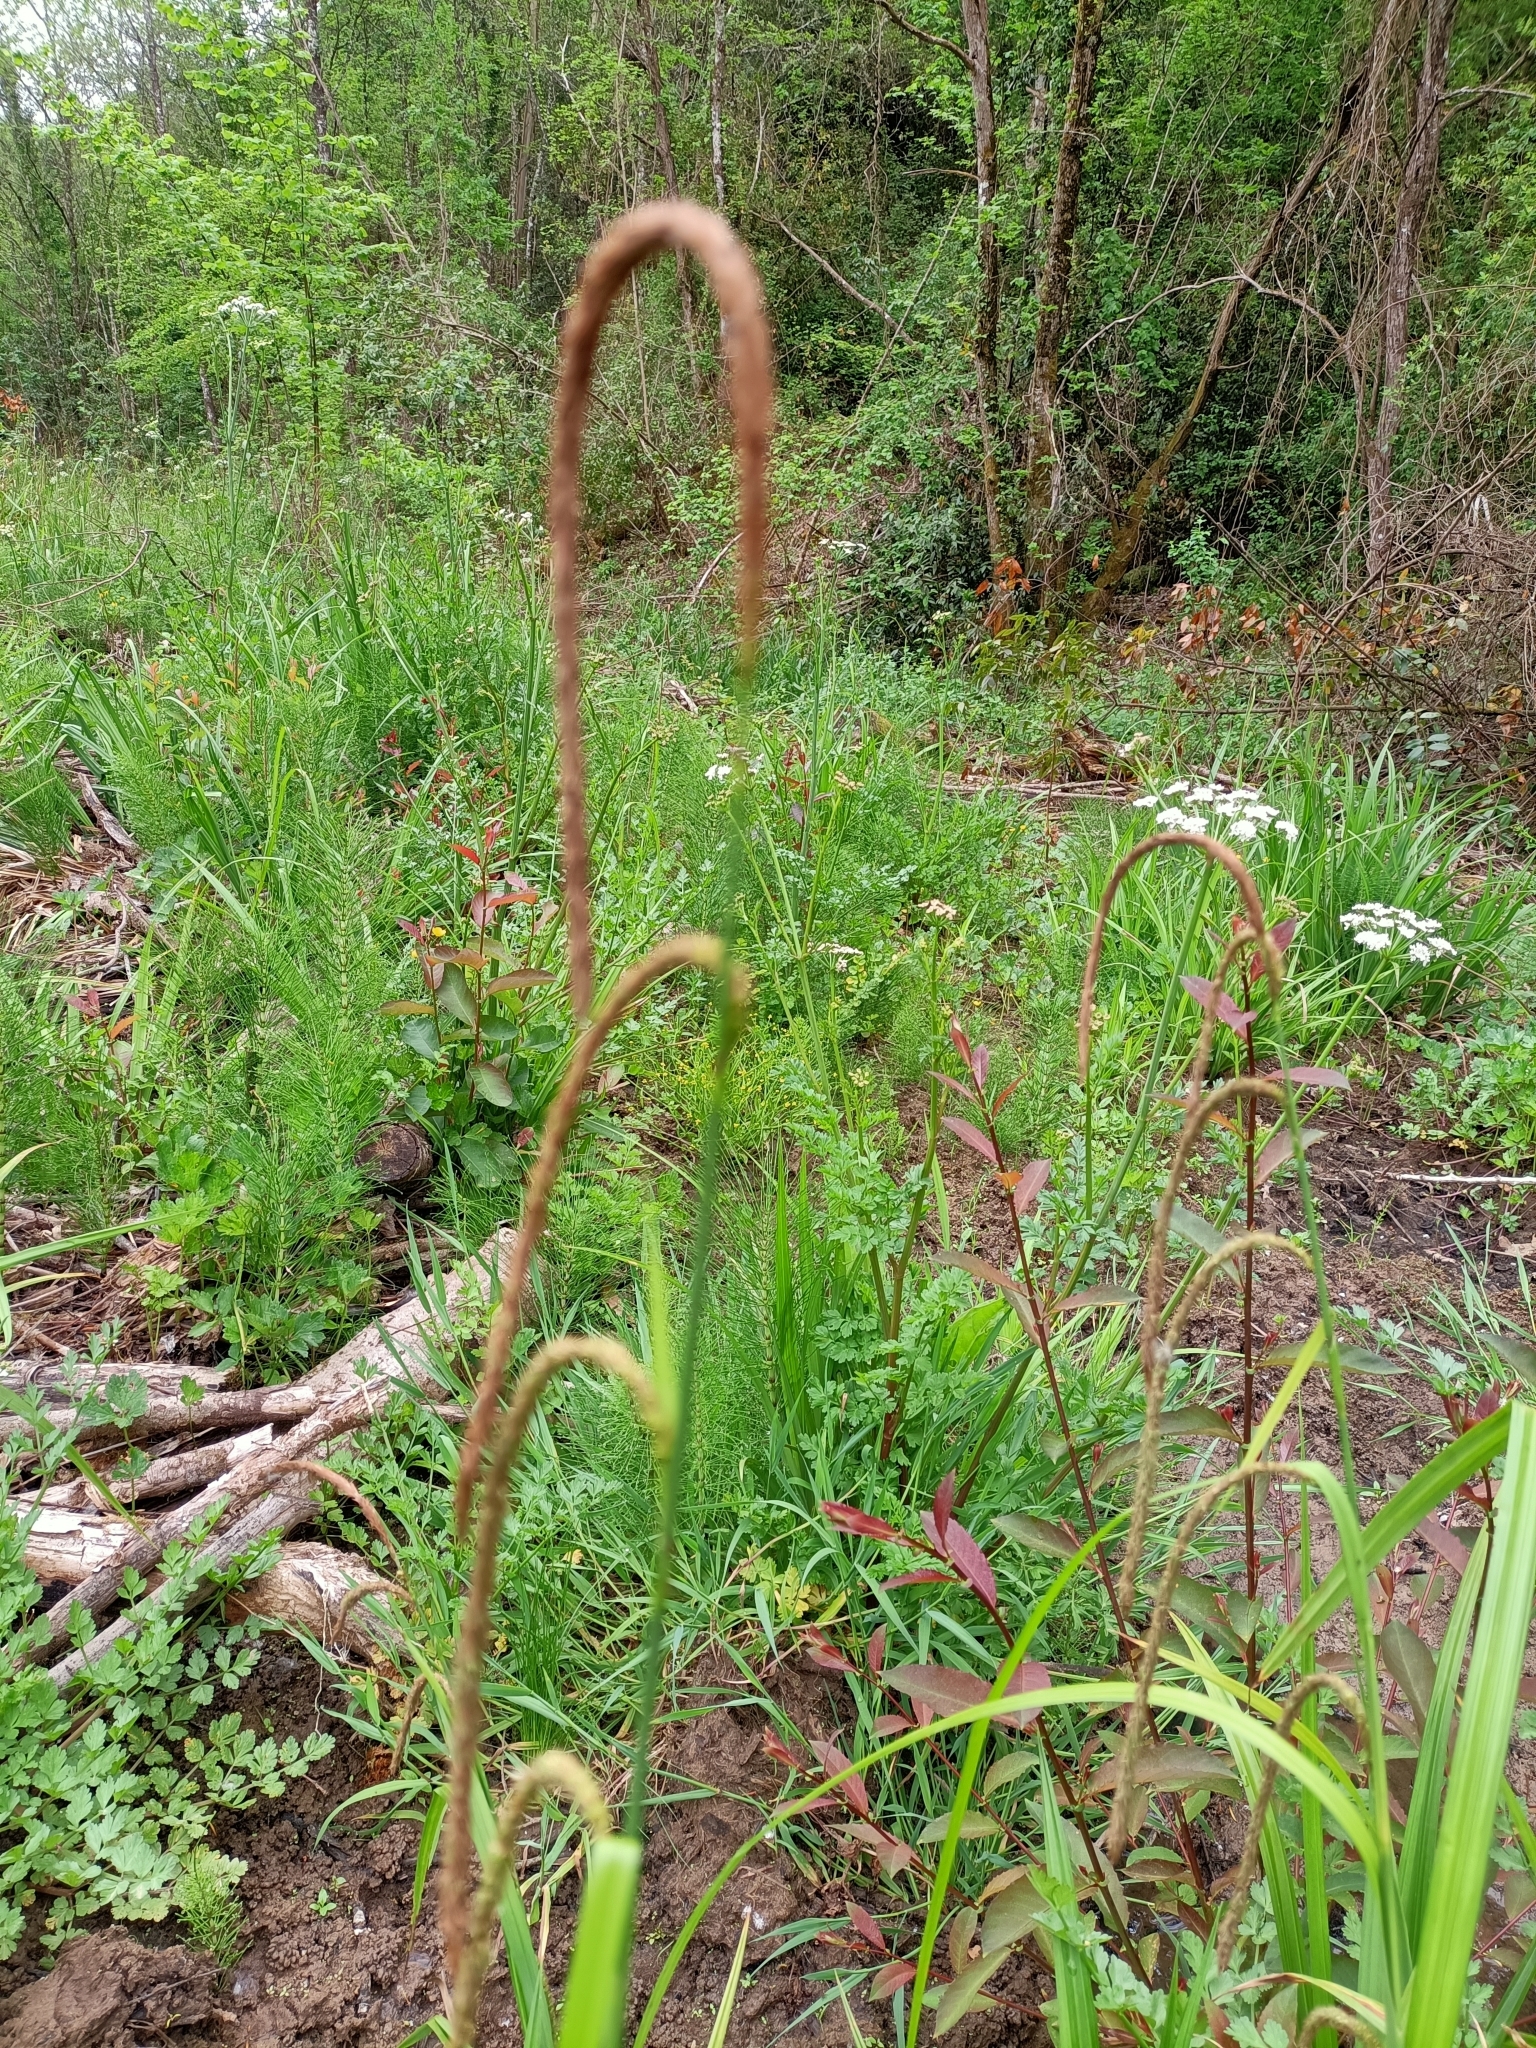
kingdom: Plantae
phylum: Tracheophyta
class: Liliopsida
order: Poales
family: Cyperaceae
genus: Carex
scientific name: Carex pendula
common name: Pendulous sedge
